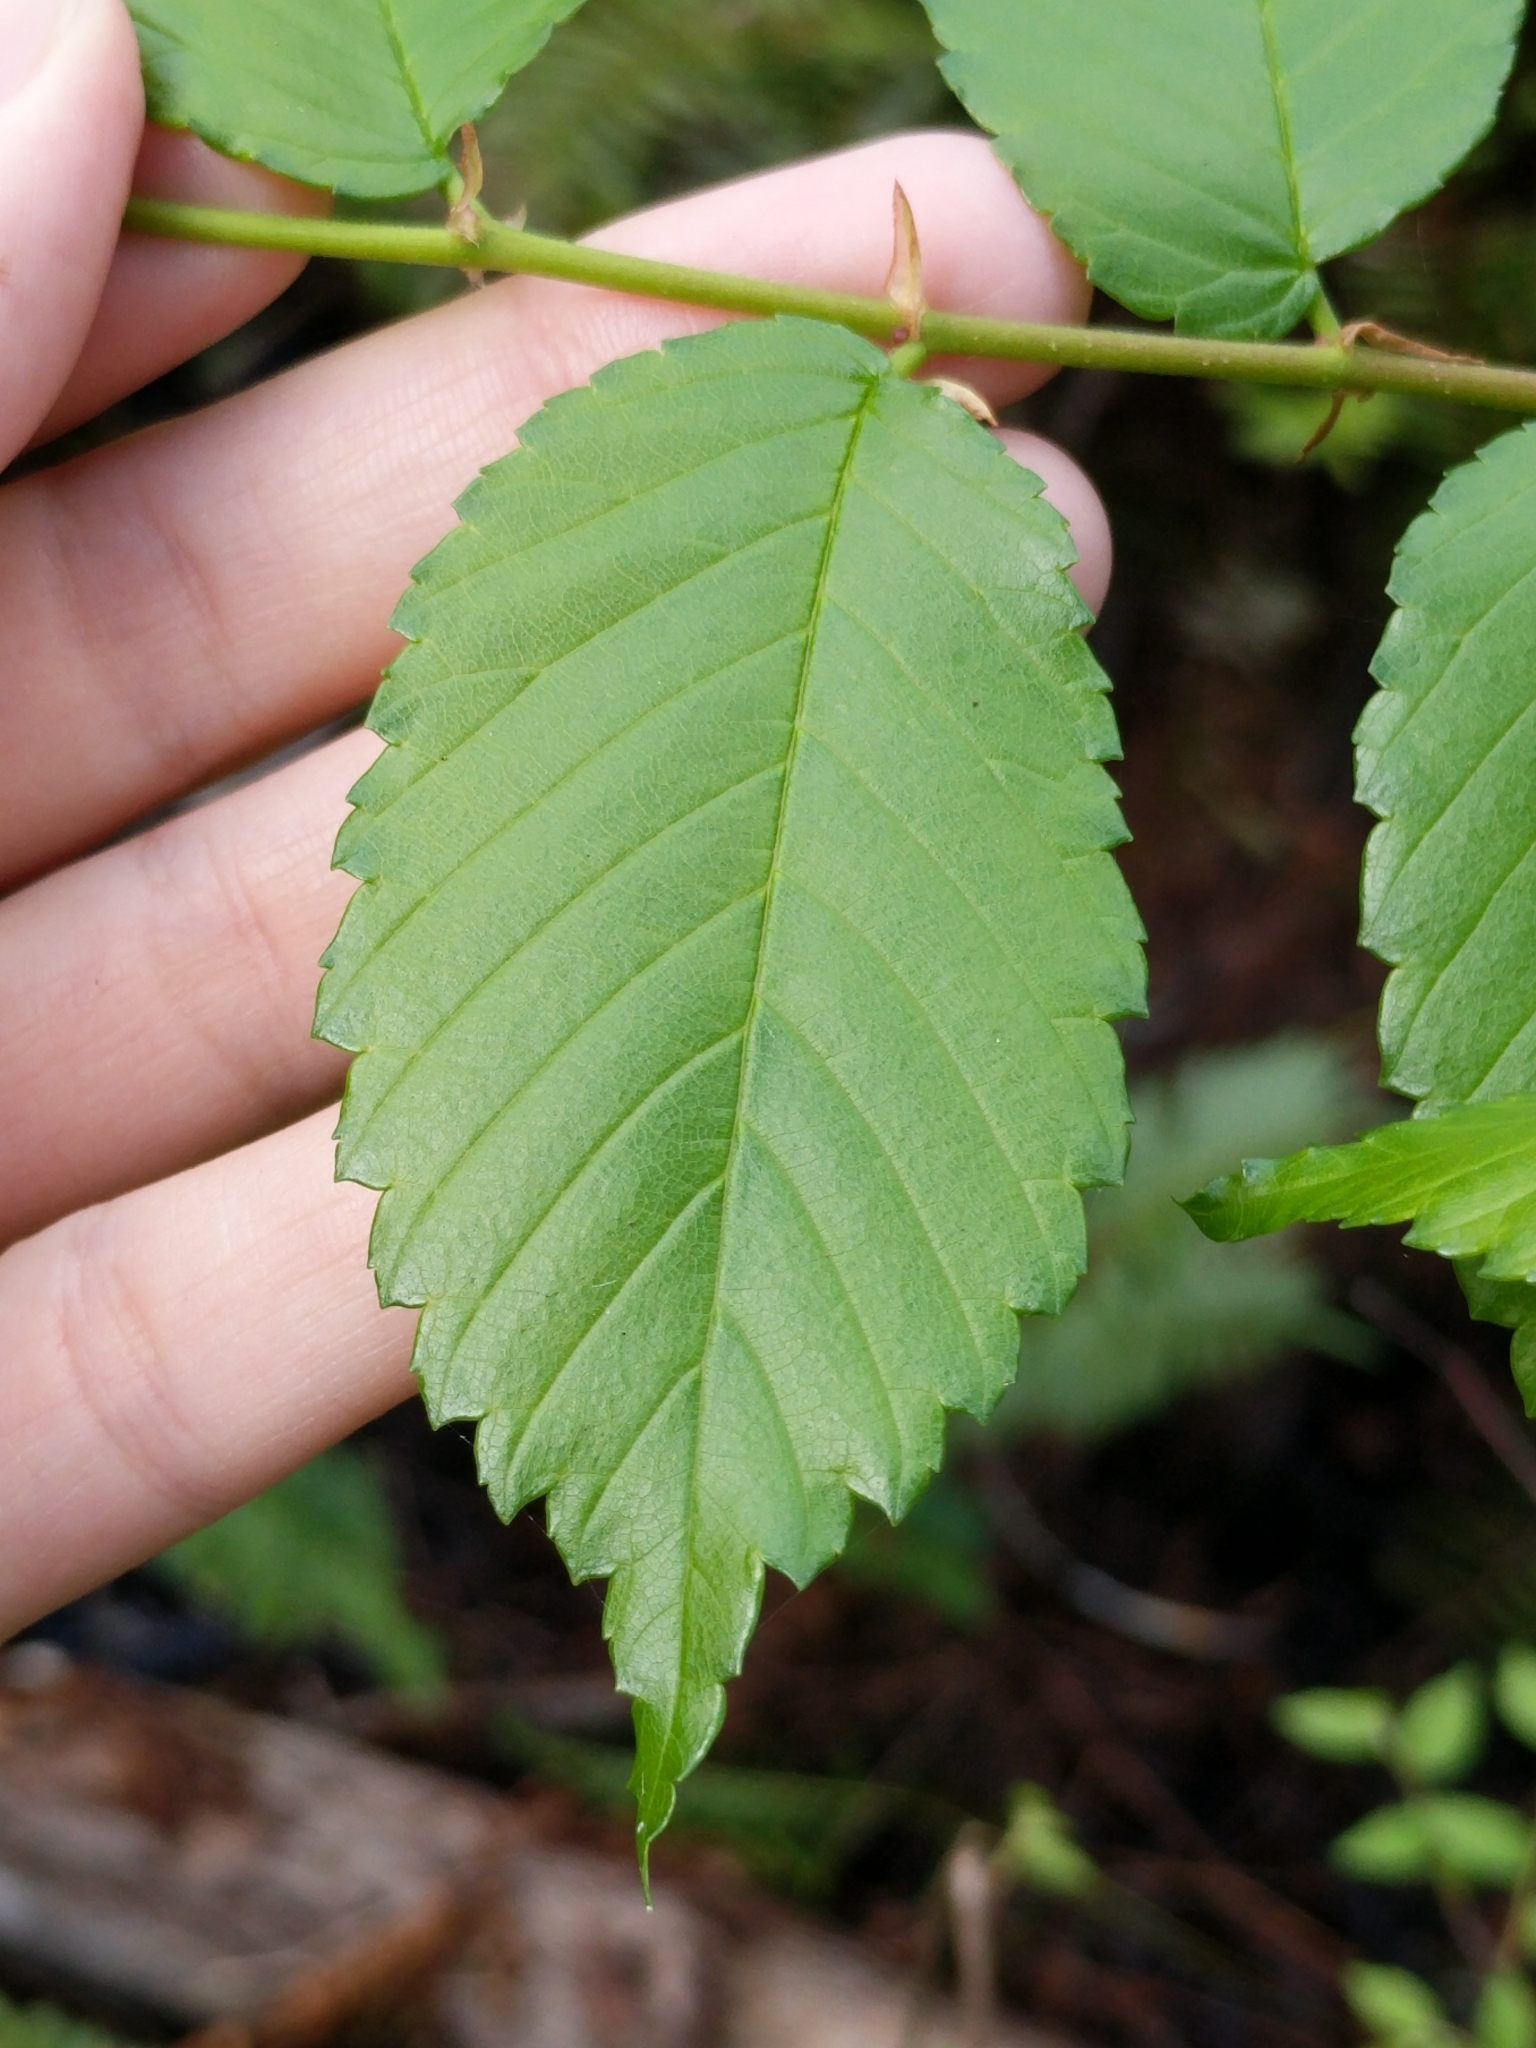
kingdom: Plantae
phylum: Tracheophyta
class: Magnoliopsida
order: Rosales
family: Ulmaceae
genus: Ulmus
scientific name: Ulmus americana
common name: American elm
